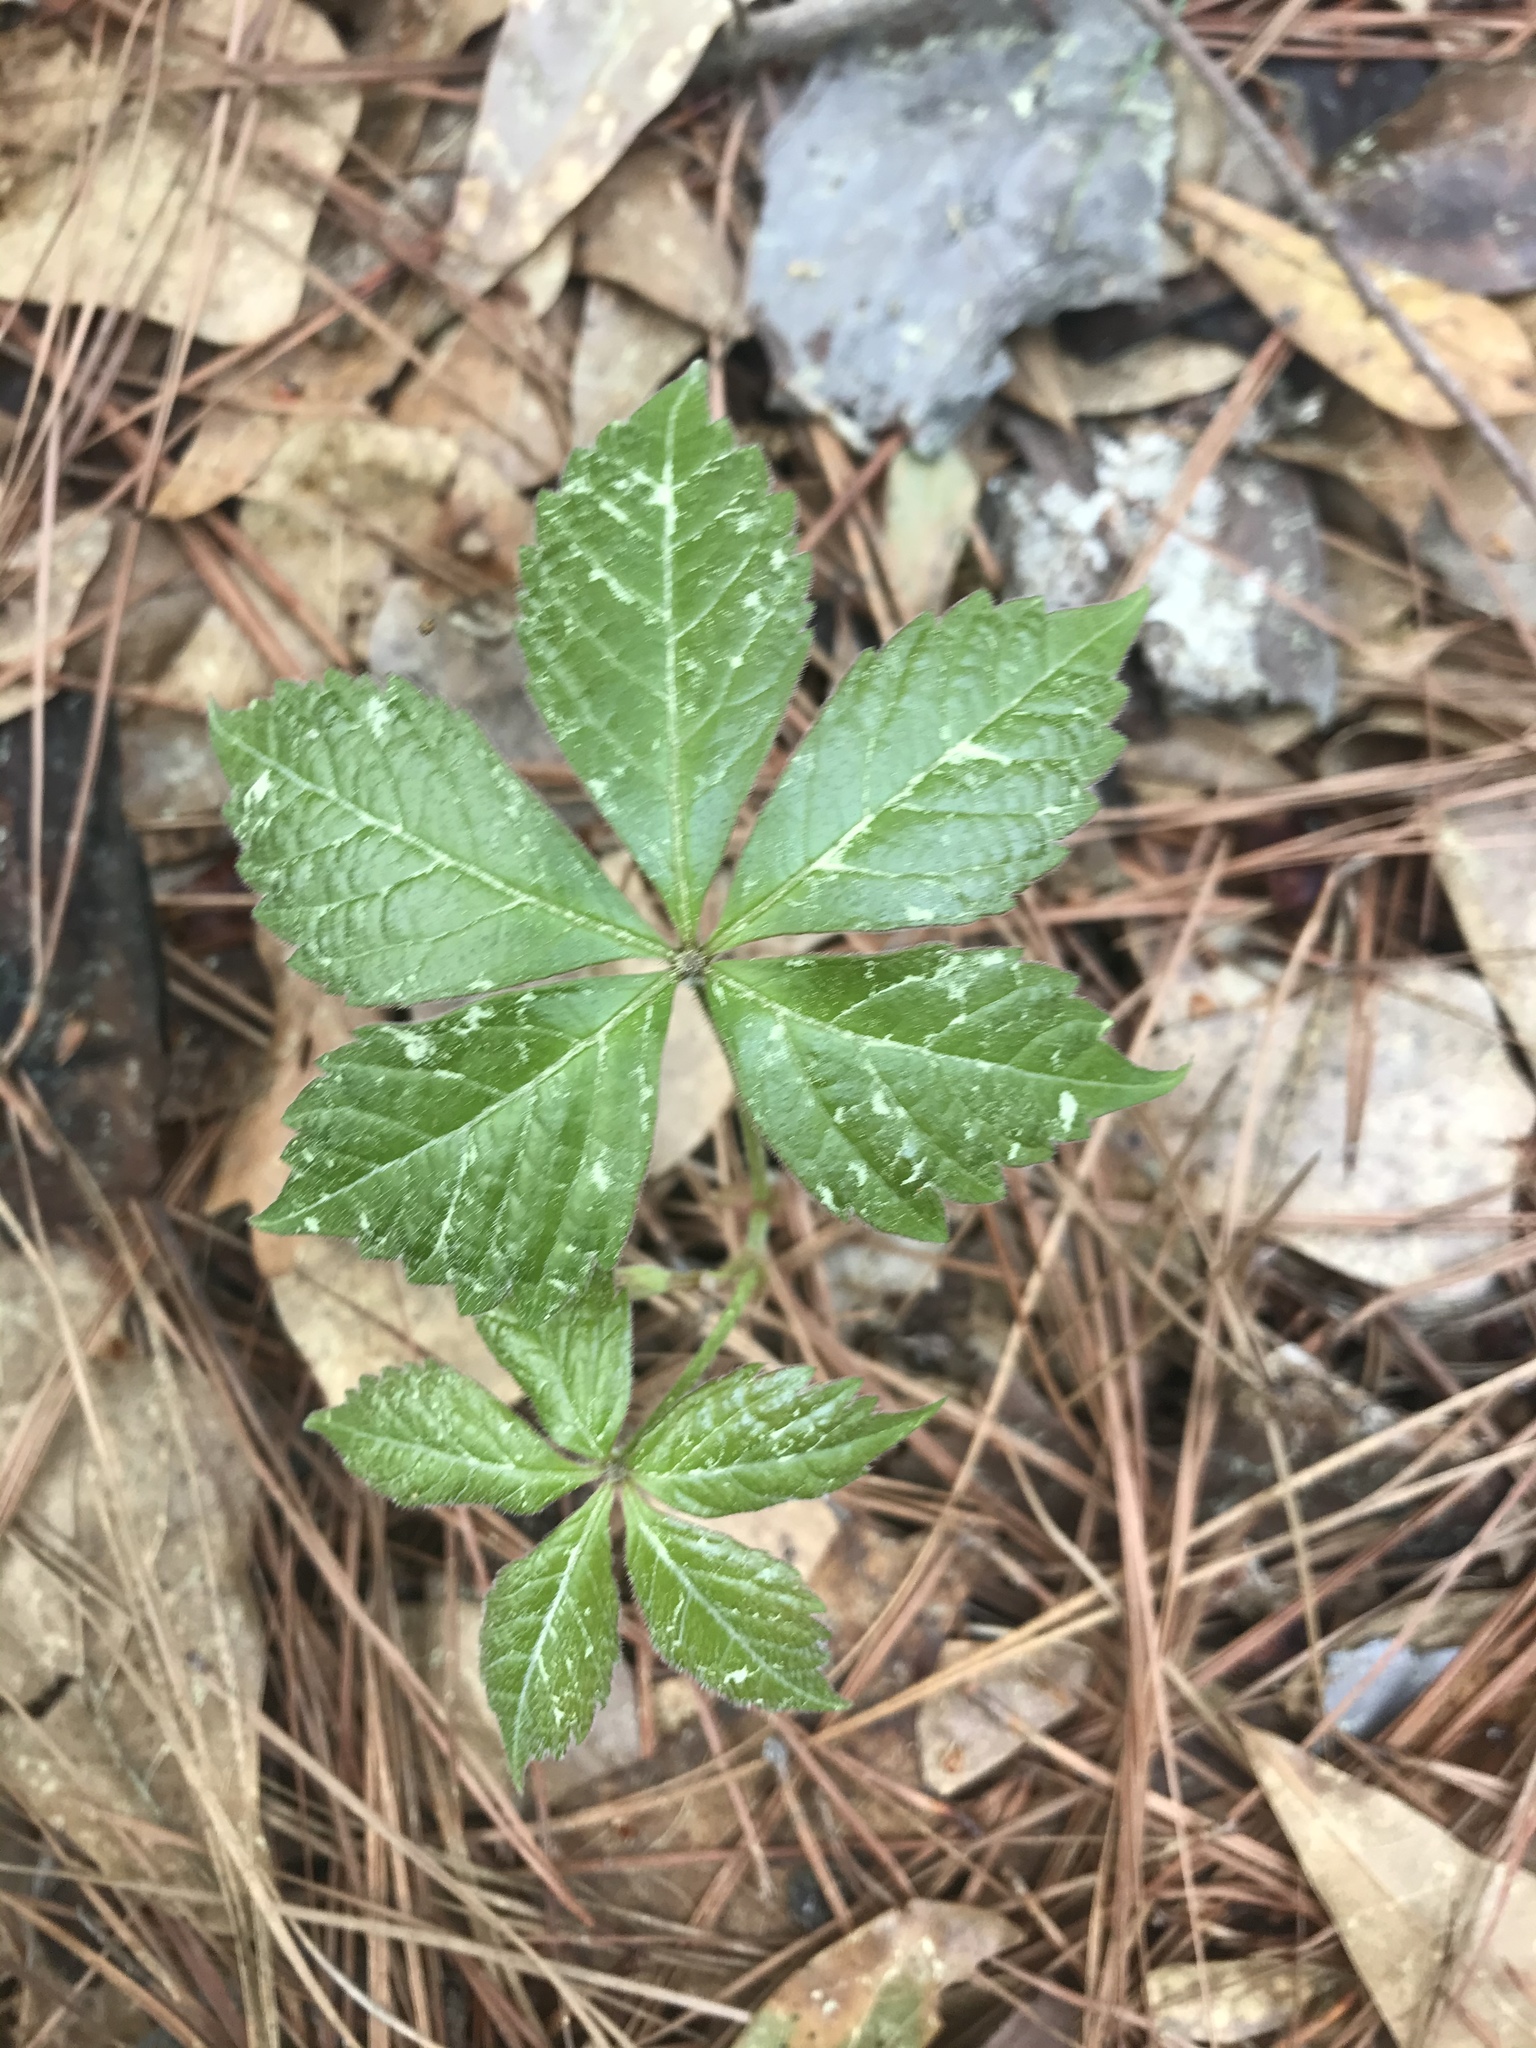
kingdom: Plantae
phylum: Tracheophyta
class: Magnoliopsida
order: Vitales
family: Vitaceae
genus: Parthenocissus
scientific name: Parthenocissus quinquefolia
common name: Virginia-creeper
